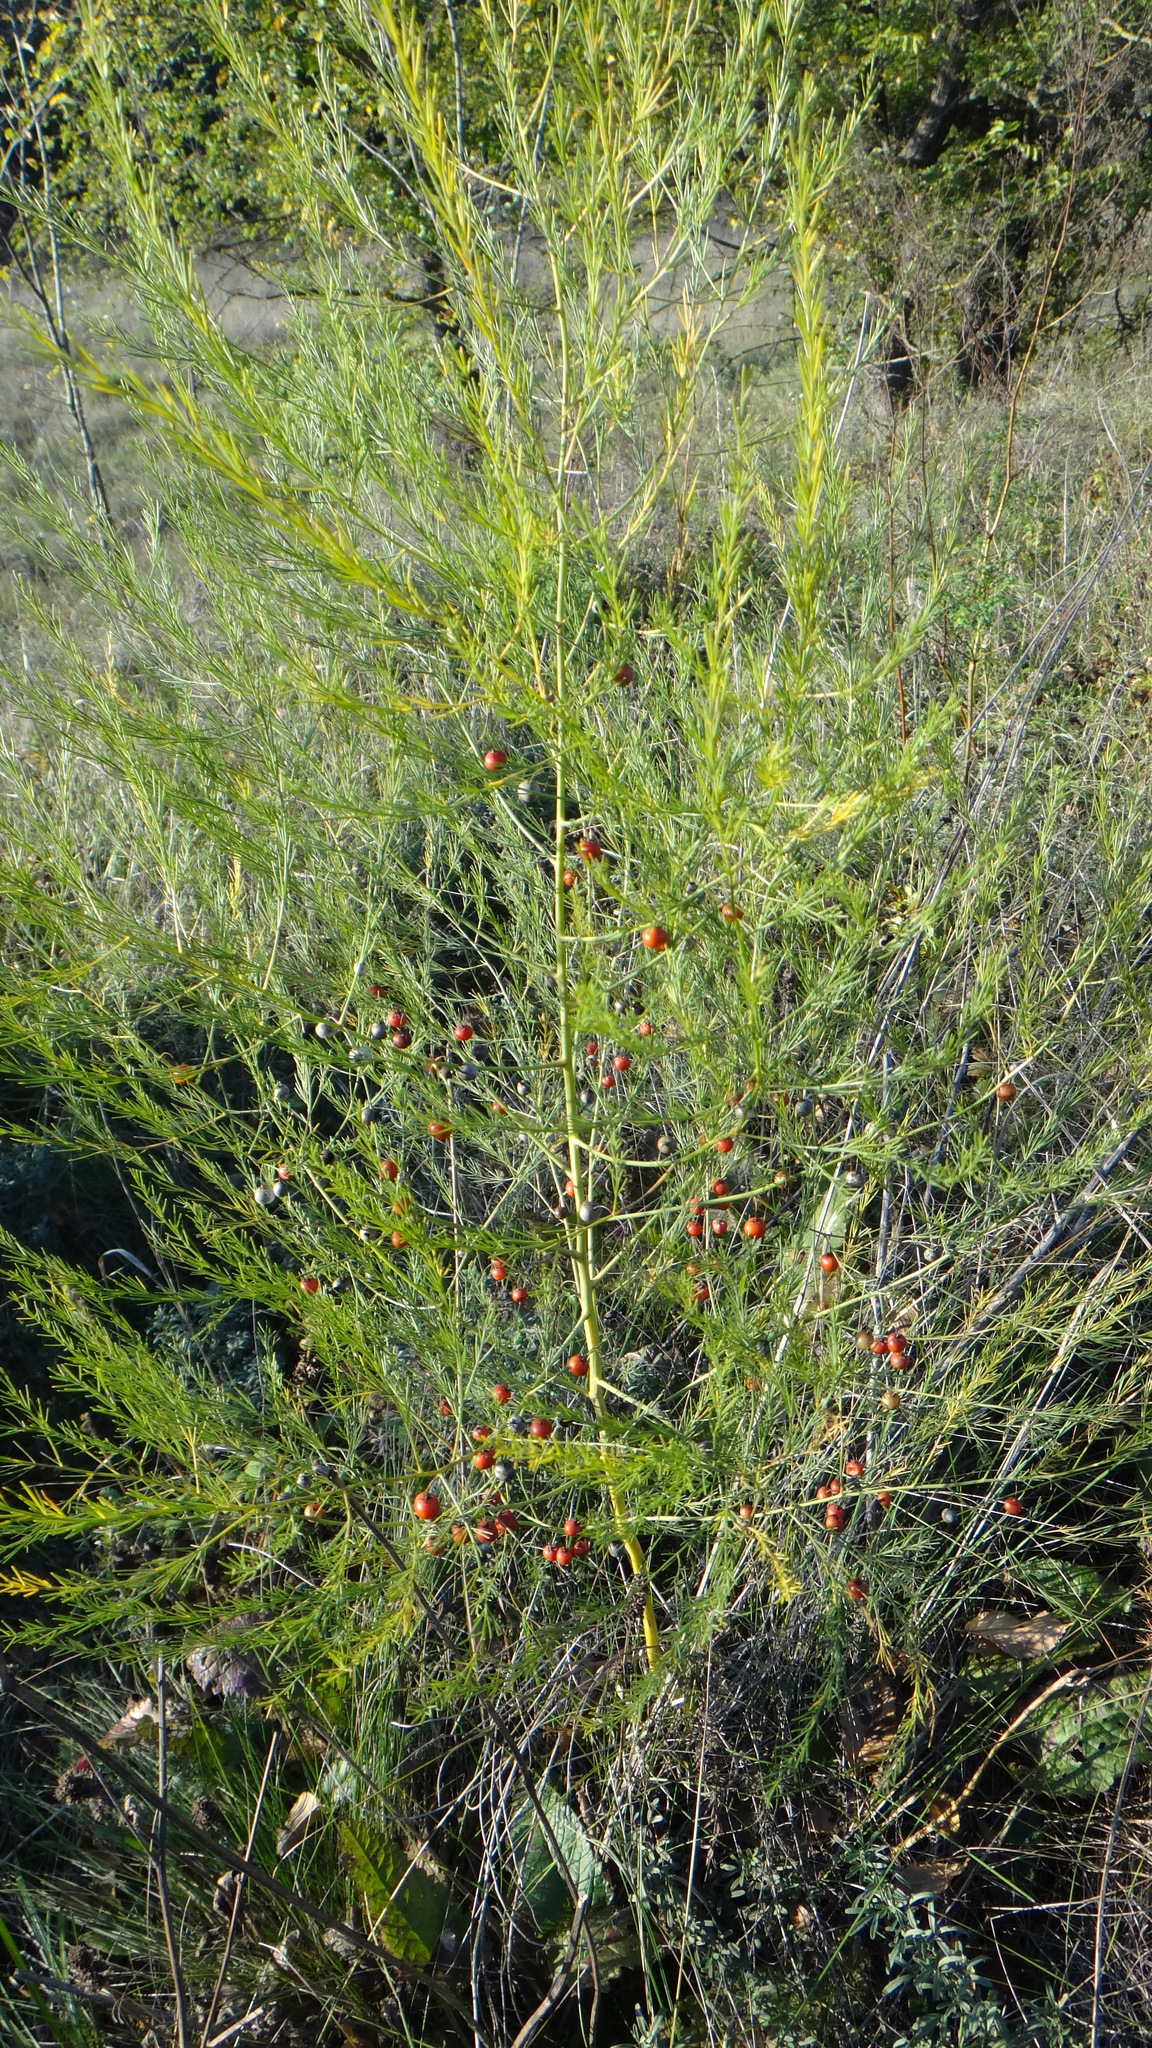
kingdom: Plantae
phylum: Tracheophyta
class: Liliopsida
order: Asparagales
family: Asparagaceae
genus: Asparagus
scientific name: Asparagus officinalis
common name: Garden asparagus
